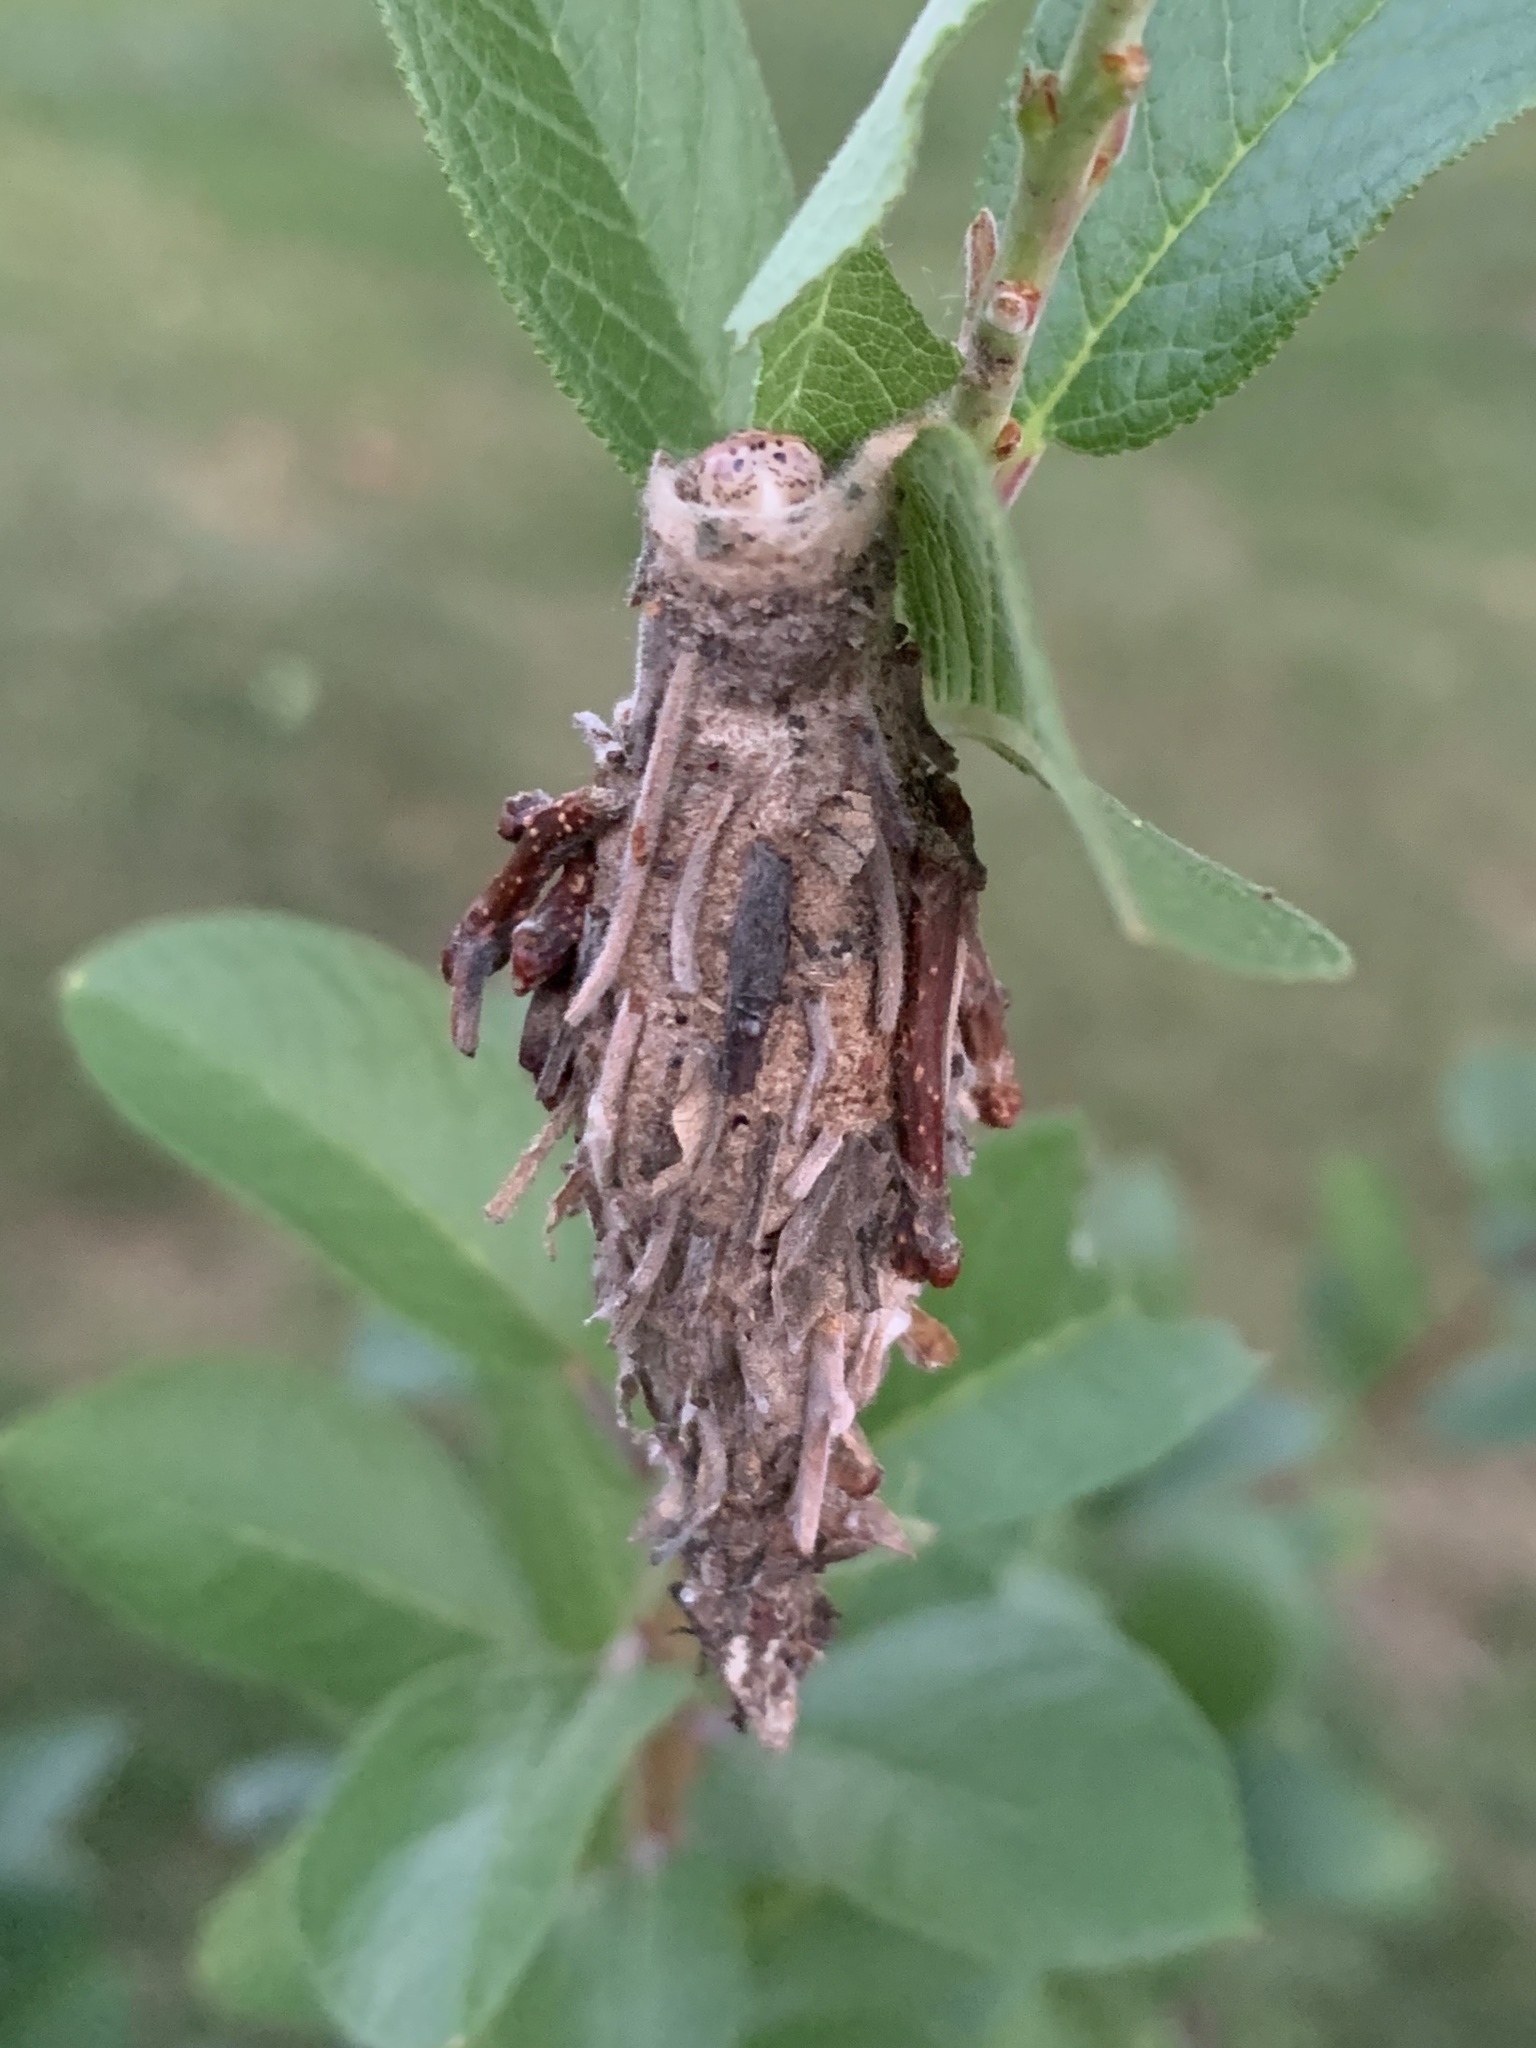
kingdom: Animalia
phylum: Arthropoda
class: Insecta
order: Lepidoptera
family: Psychidae
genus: Thyridopteryx
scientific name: Thyridopteryx ephemeraeformis
